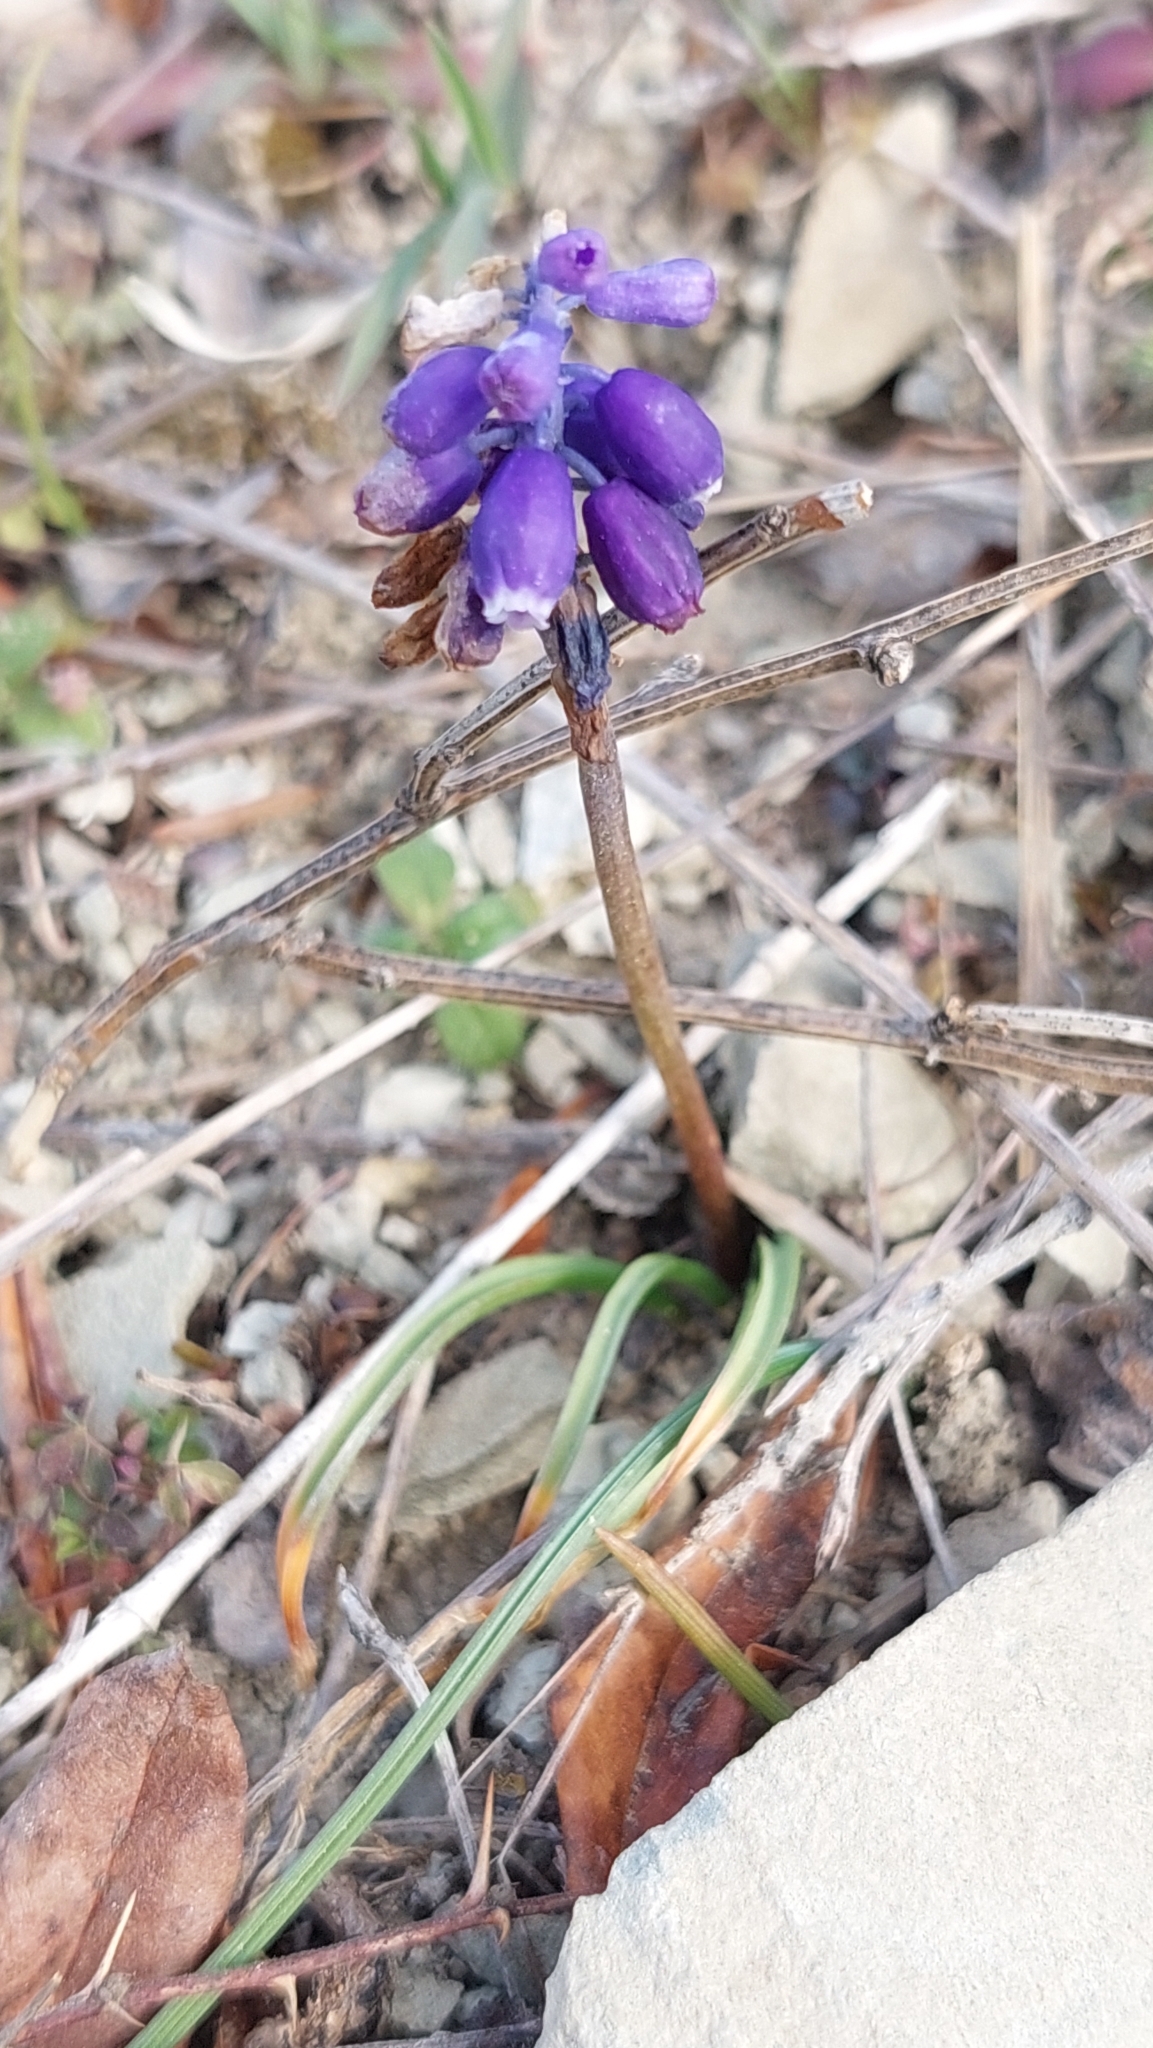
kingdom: Plantae
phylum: Tracheophyta
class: Liliopsida
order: Asparagales
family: Asparagaceae
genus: Muscari
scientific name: Muscari neglectum
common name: Grape-hyacinth
